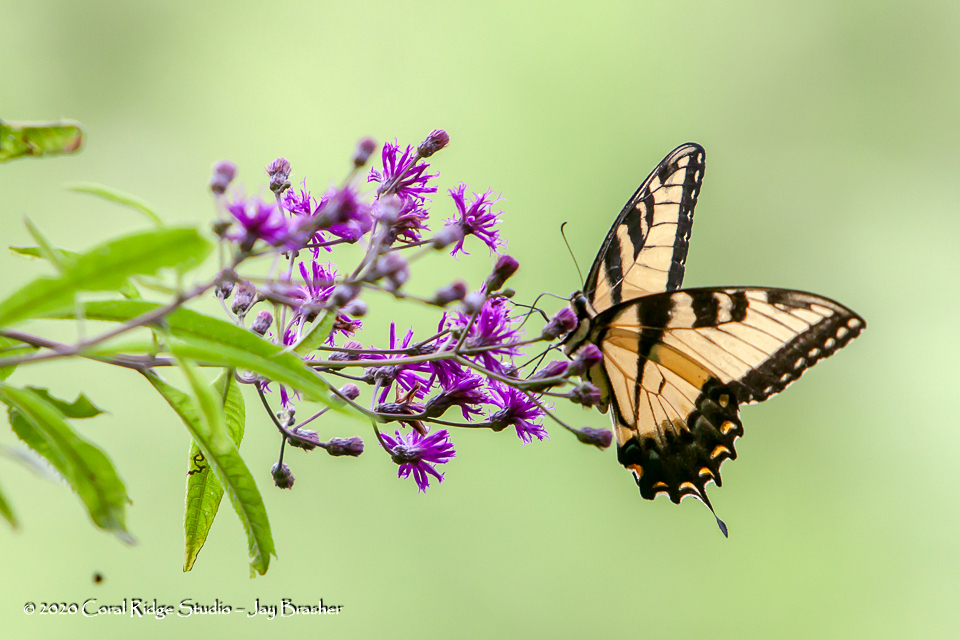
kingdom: Animalia
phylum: Arthropoda
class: Insecta
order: Lepidoptera
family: Papilionidae
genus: Papilio
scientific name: Papilio glaucus
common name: Tiger swallowtail
